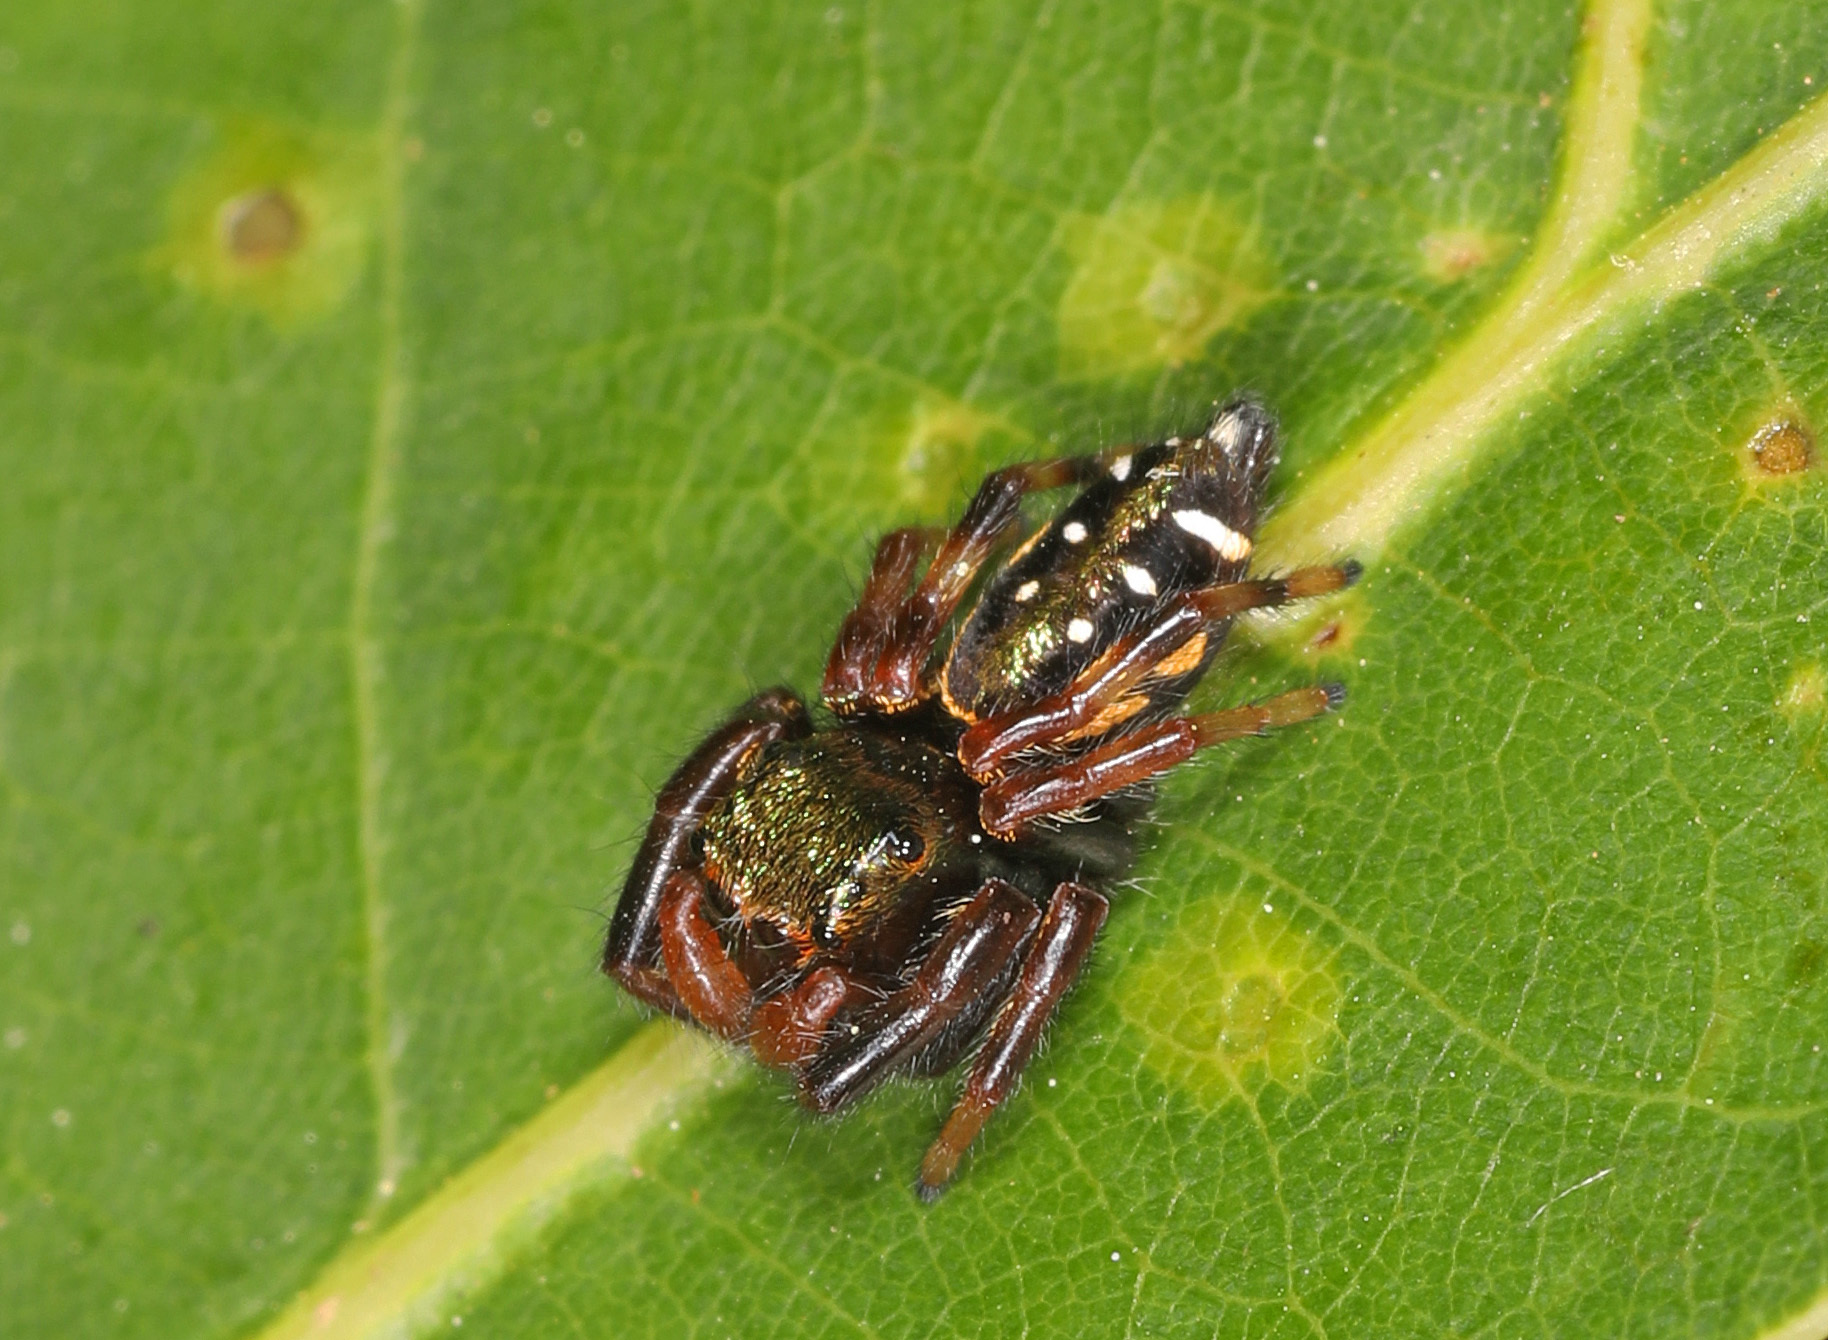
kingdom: Animalia
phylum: Arthropoda
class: Arachnida
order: Araneae
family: Salticidae
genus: Paraphidippus
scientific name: Paraphidippus aurantius
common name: Jumping spiders
